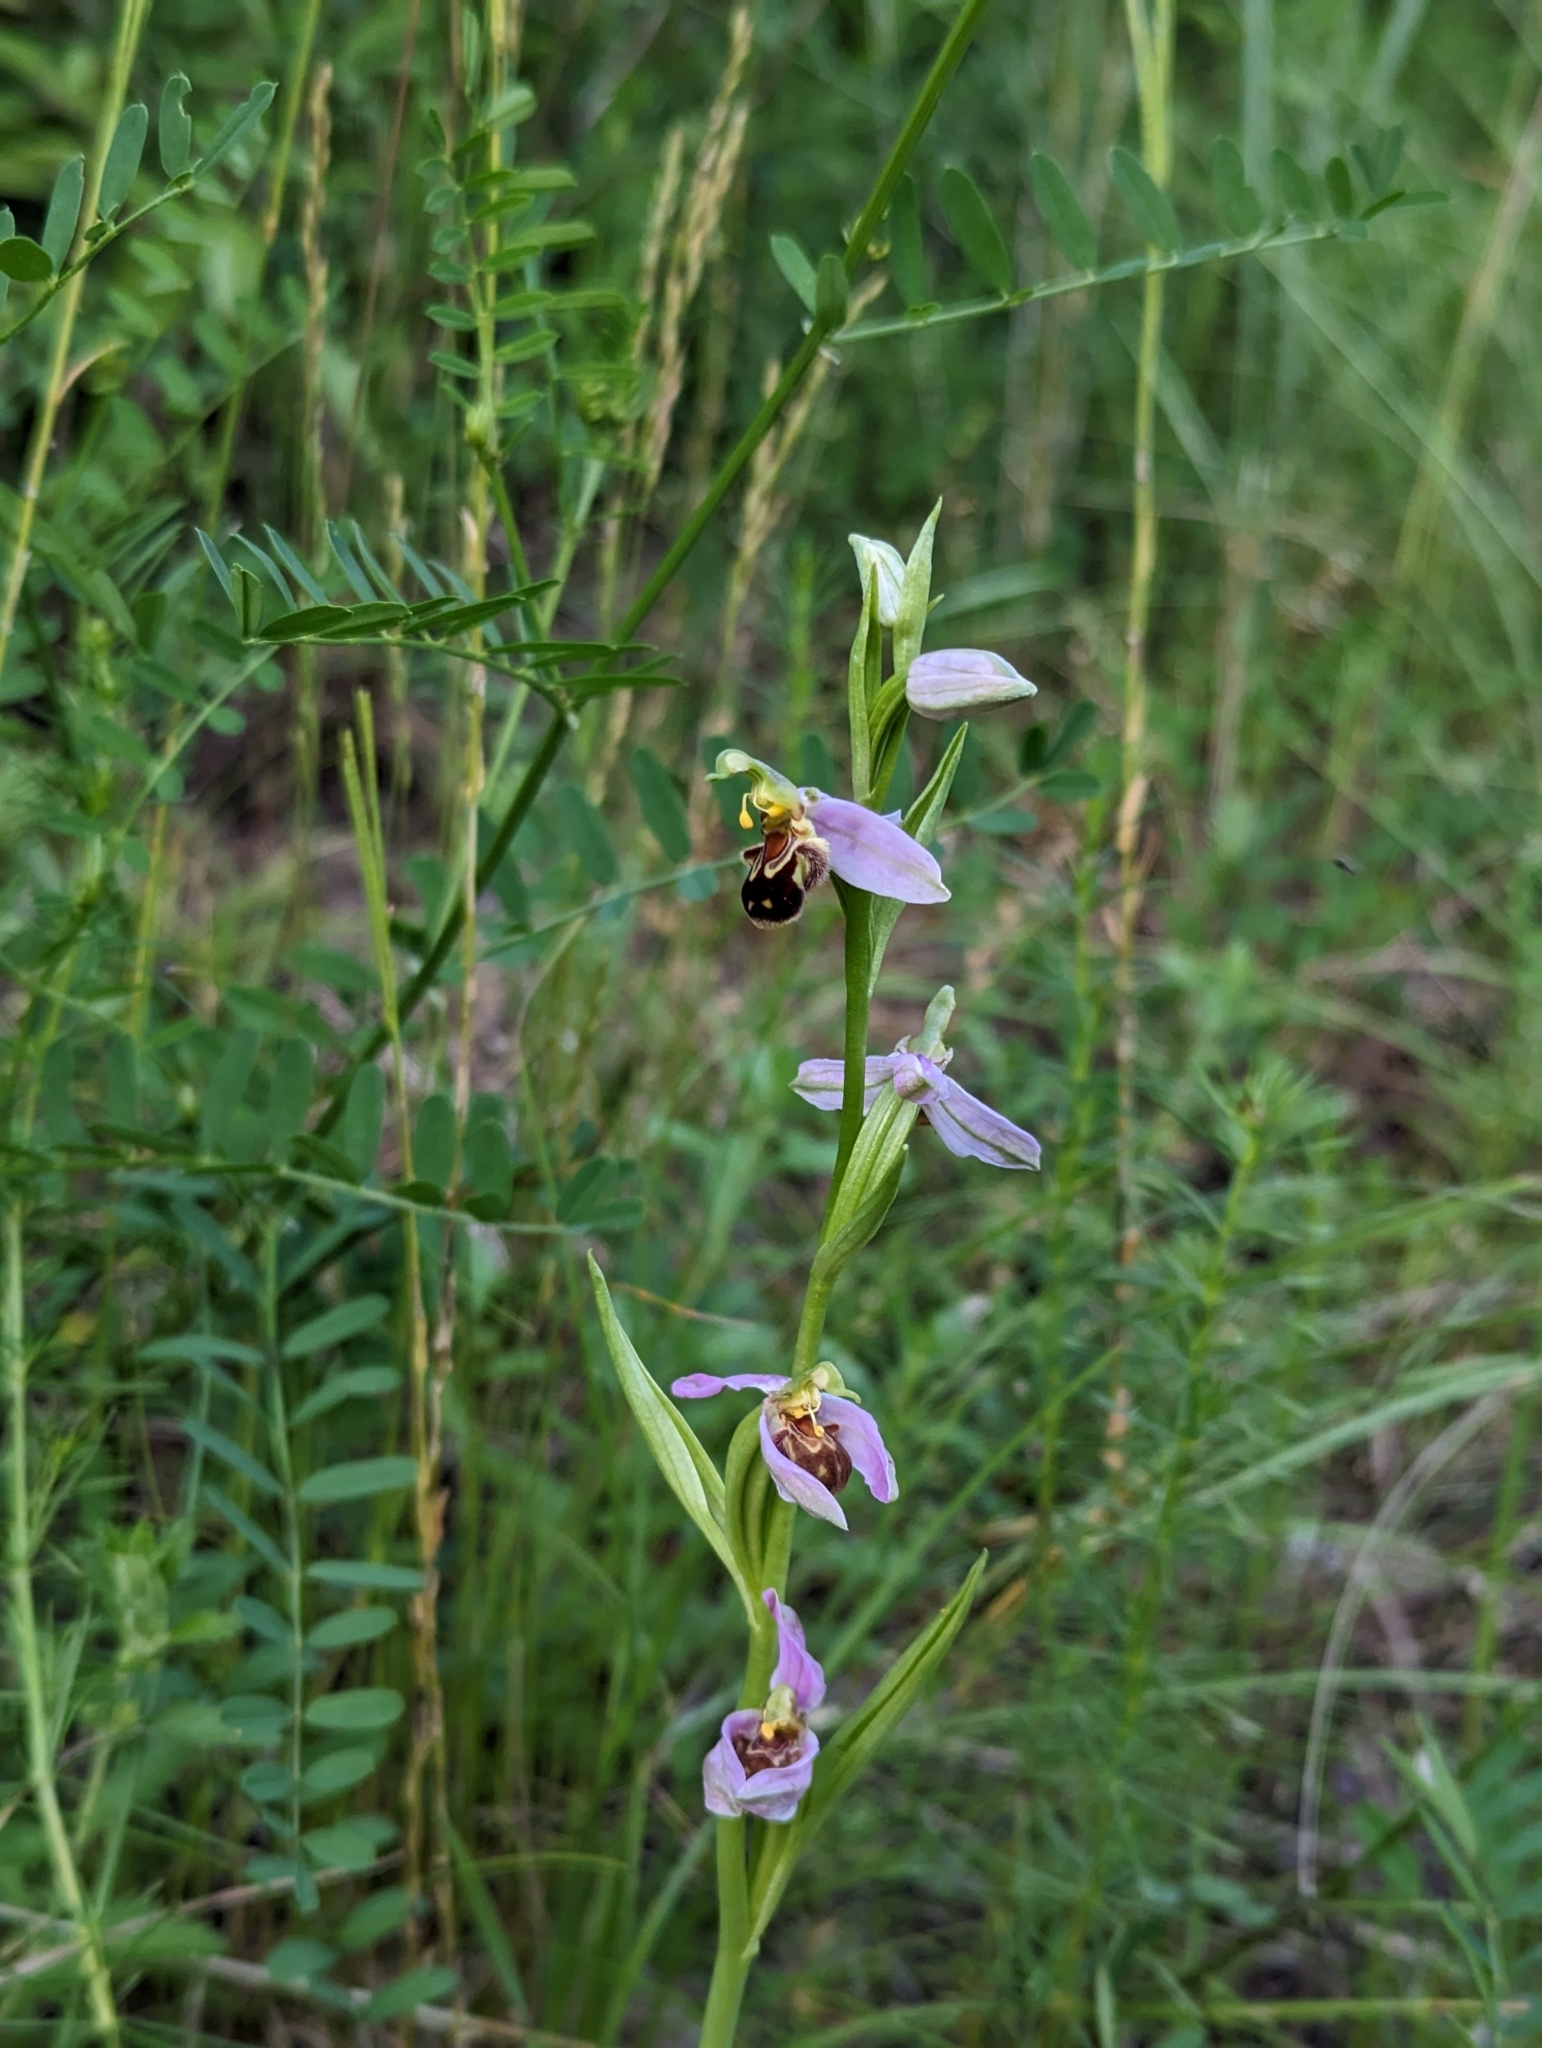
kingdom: Plantae
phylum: Tracheophyta
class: Liliopsida
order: Asparagales
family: Orchidaceae
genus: Ophrys
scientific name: Ophrys apifera
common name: Bee orchid
